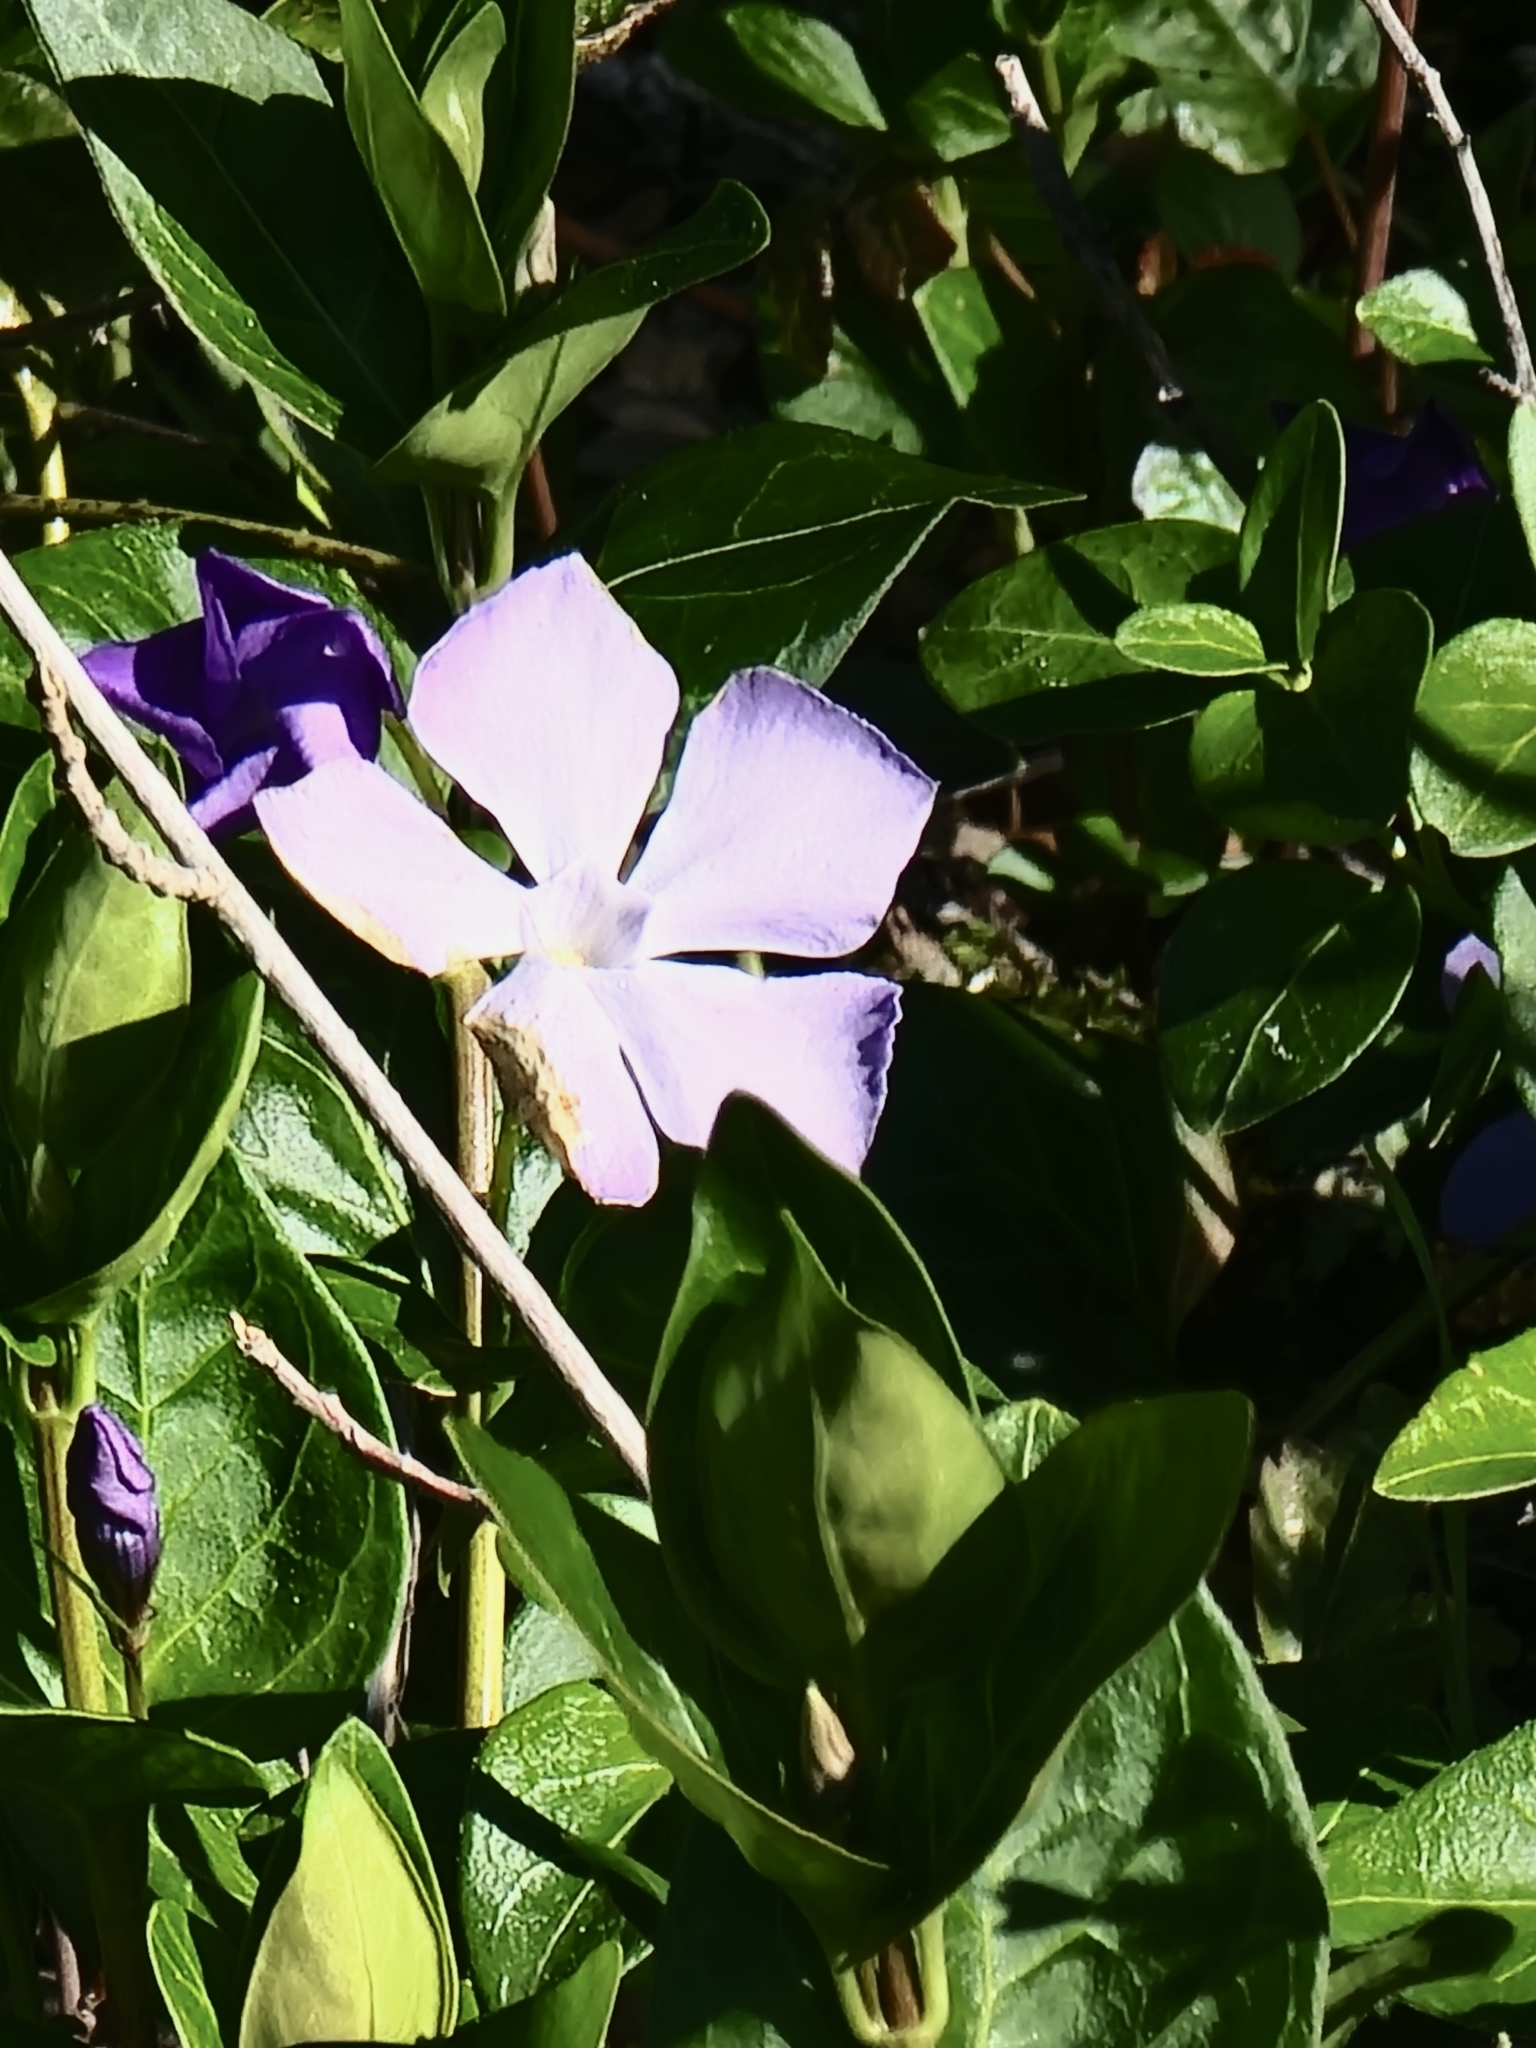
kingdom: Plantae
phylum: Tracheophyta
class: Magnoliopsida
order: Gentianales
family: Apocynaceae
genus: Vinca
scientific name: Vinca major
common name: Greater periwinkle
